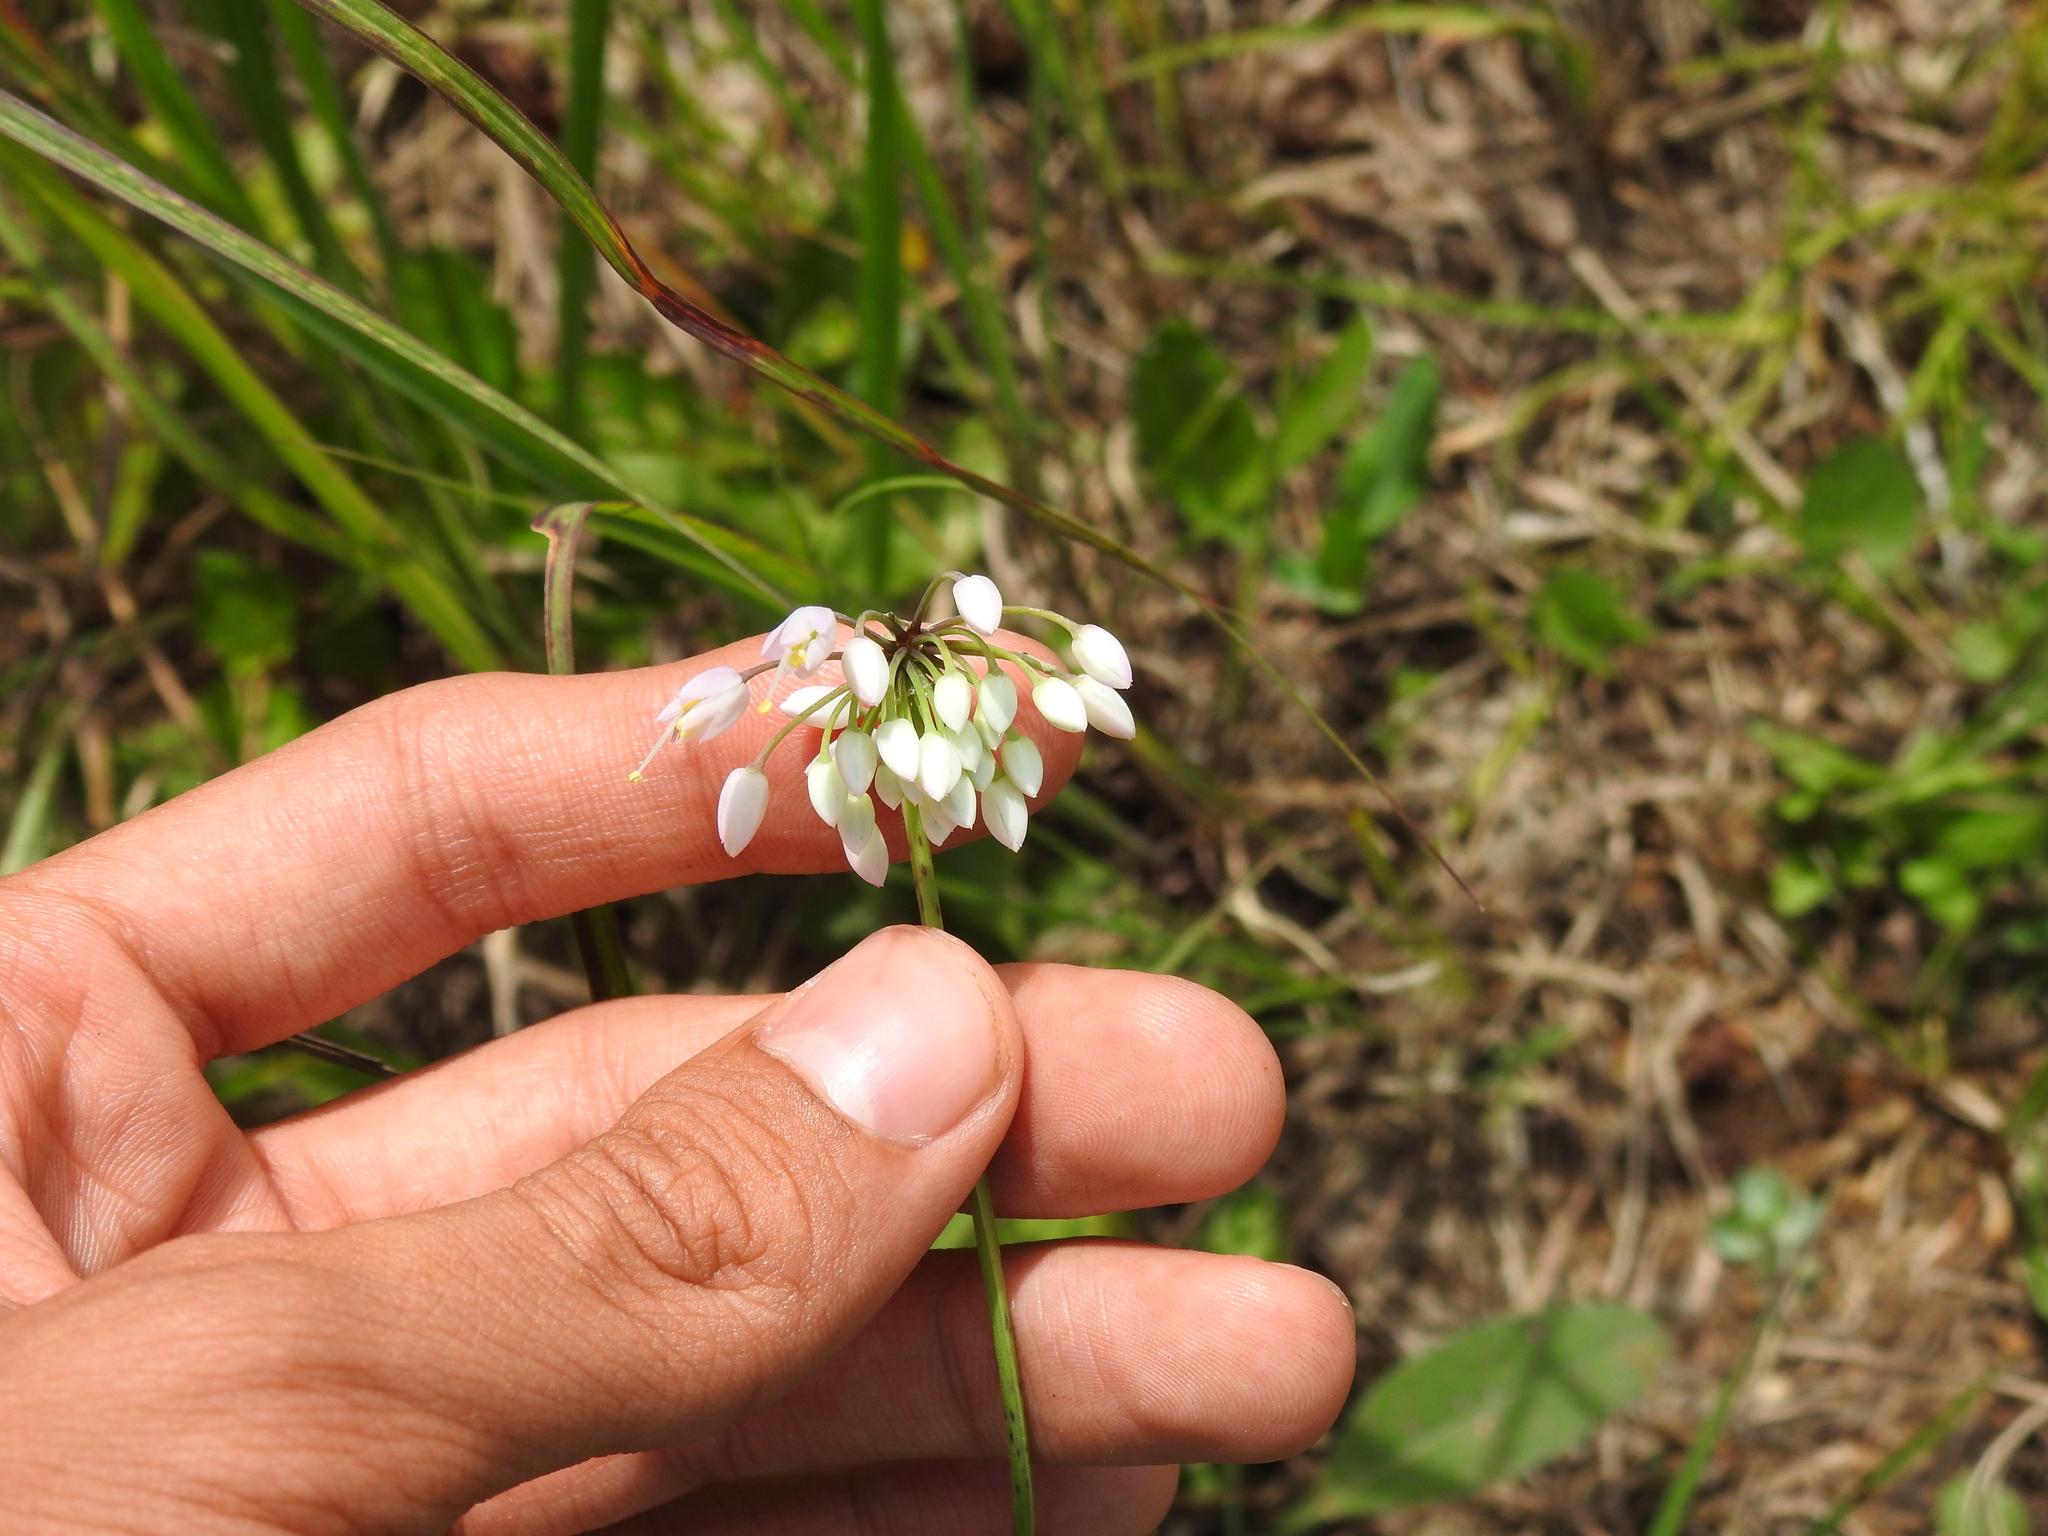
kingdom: Plantae
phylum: Tracheophyta
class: Liliopsida
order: Asparagales
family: Amaryllidaceae
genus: Allium
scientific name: Allium cernuum
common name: Nodding onion
